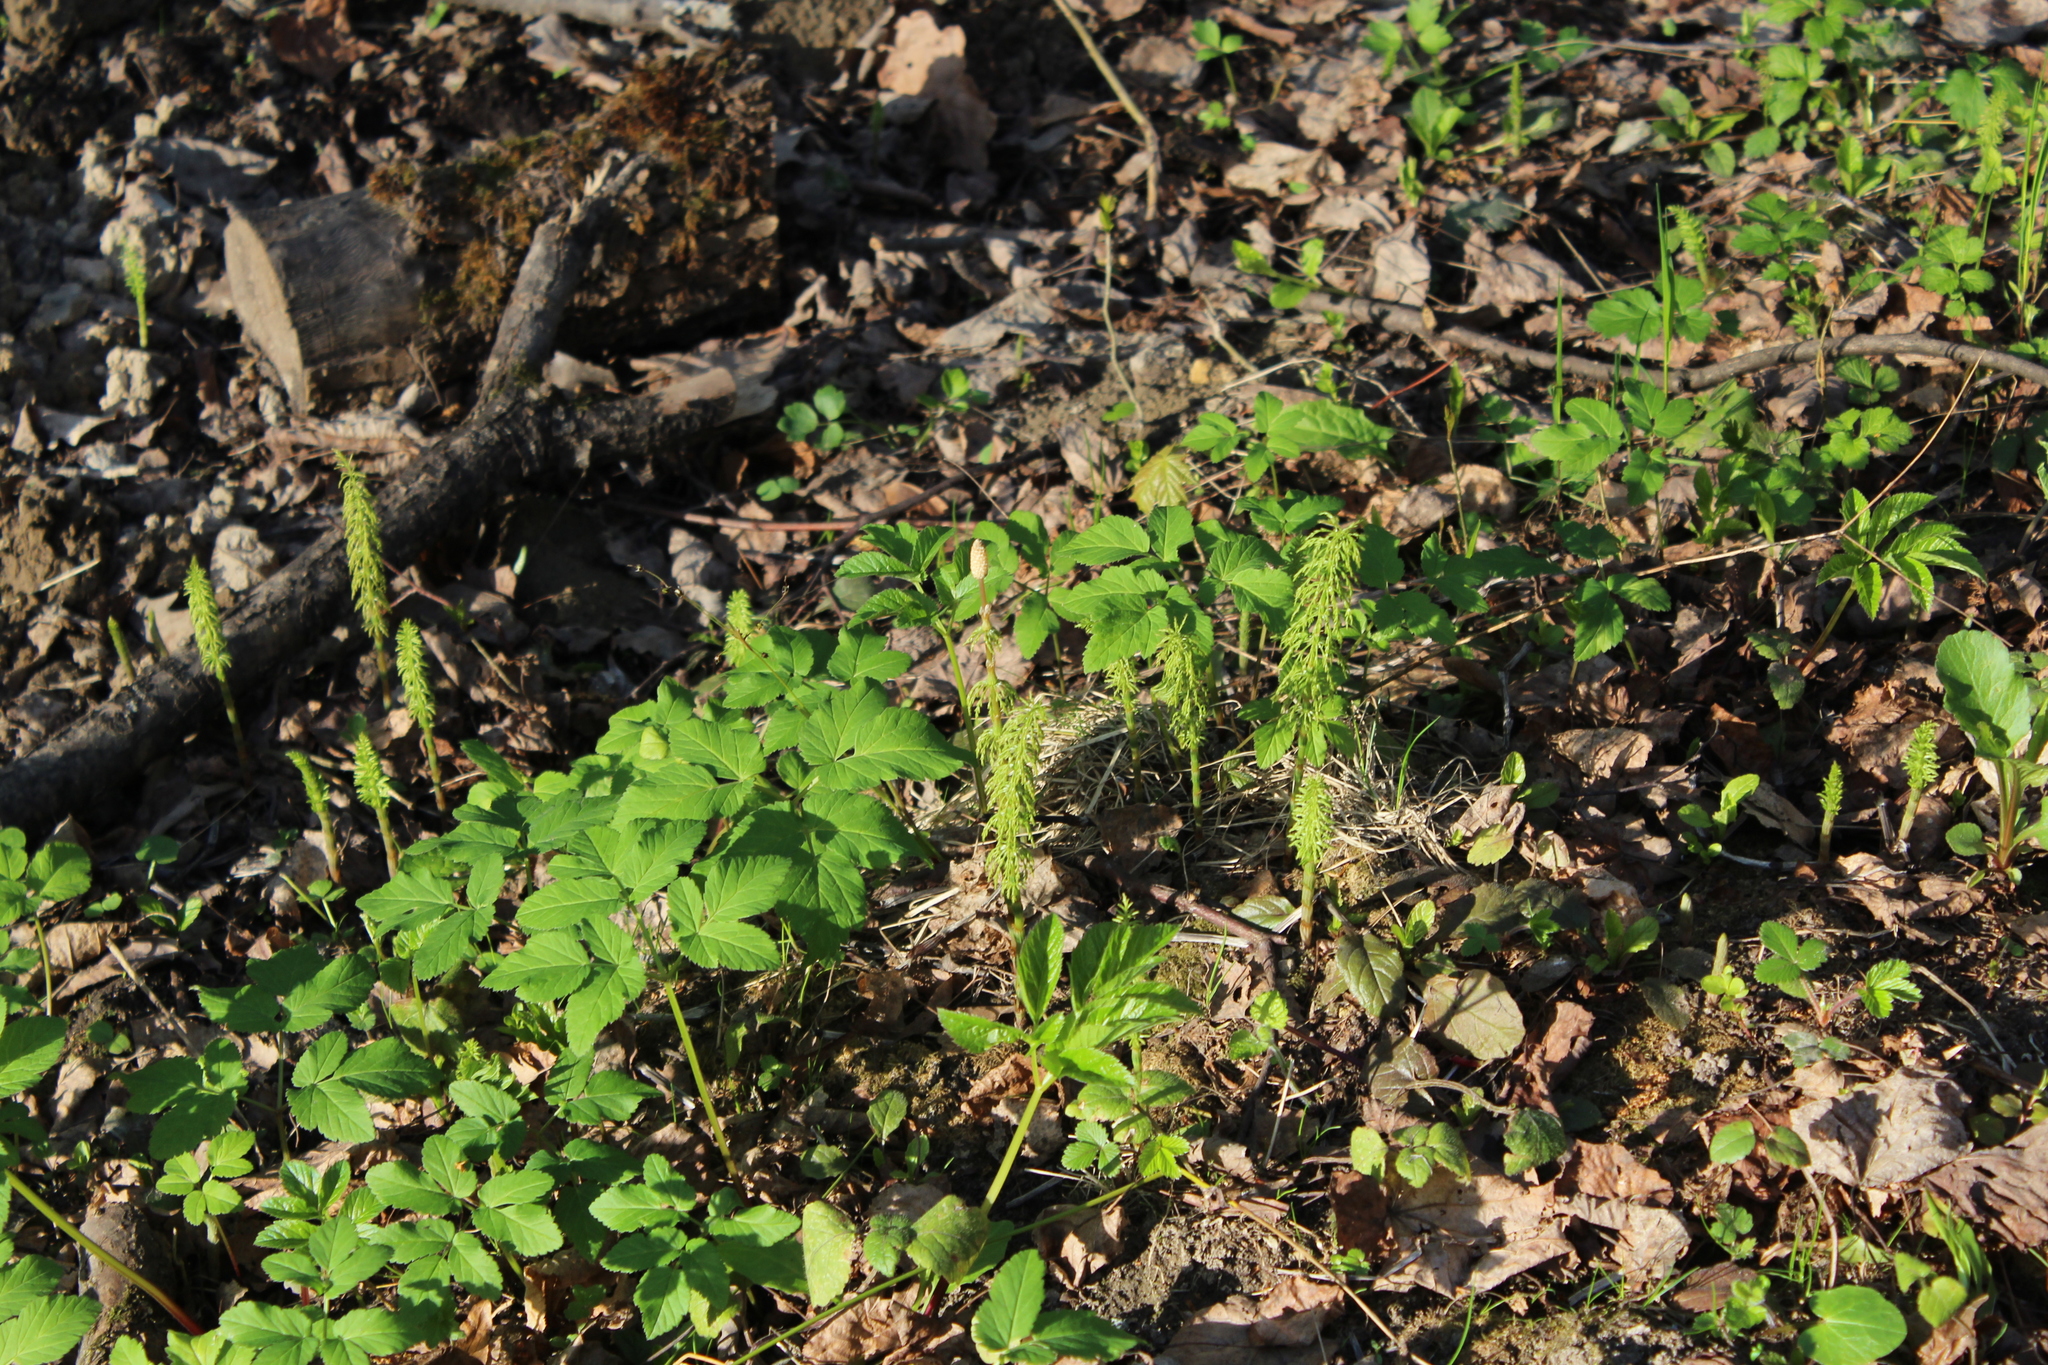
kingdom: Plantae
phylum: Tracheophyta
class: Polypodiopsida
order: Equisetales
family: Equisetaceae
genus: Equisetum
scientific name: Equisetum sylvaticum
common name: Wood horsetail
